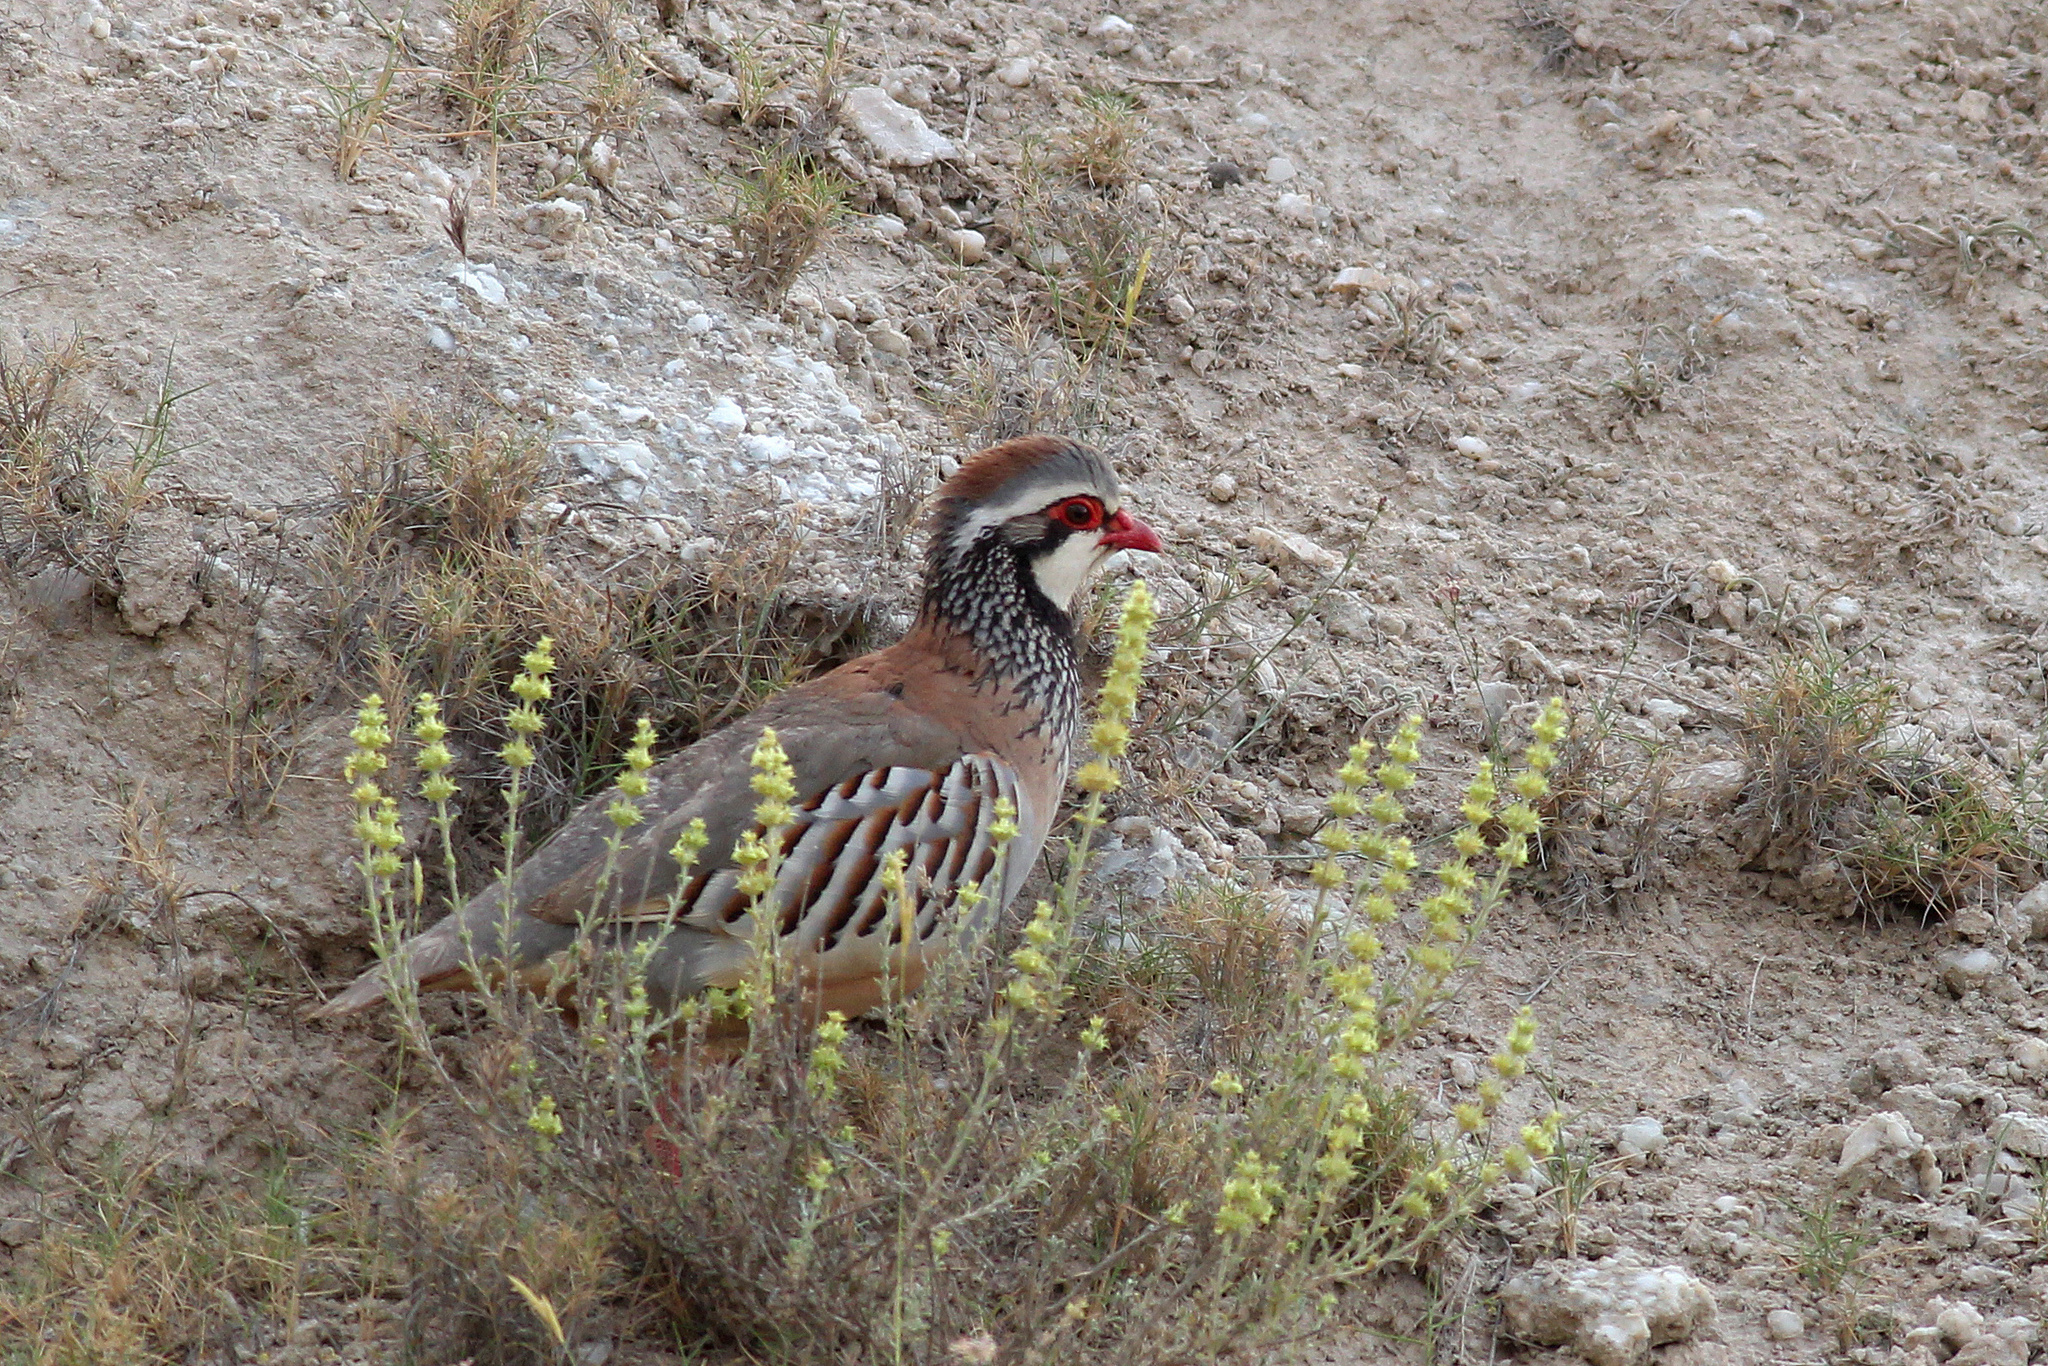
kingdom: Animalia
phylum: Chordata
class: Aves
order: Galliformes
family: Phasianidae
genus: Alectoris
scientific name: Alectoris rufa
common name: Red-legged partridge
